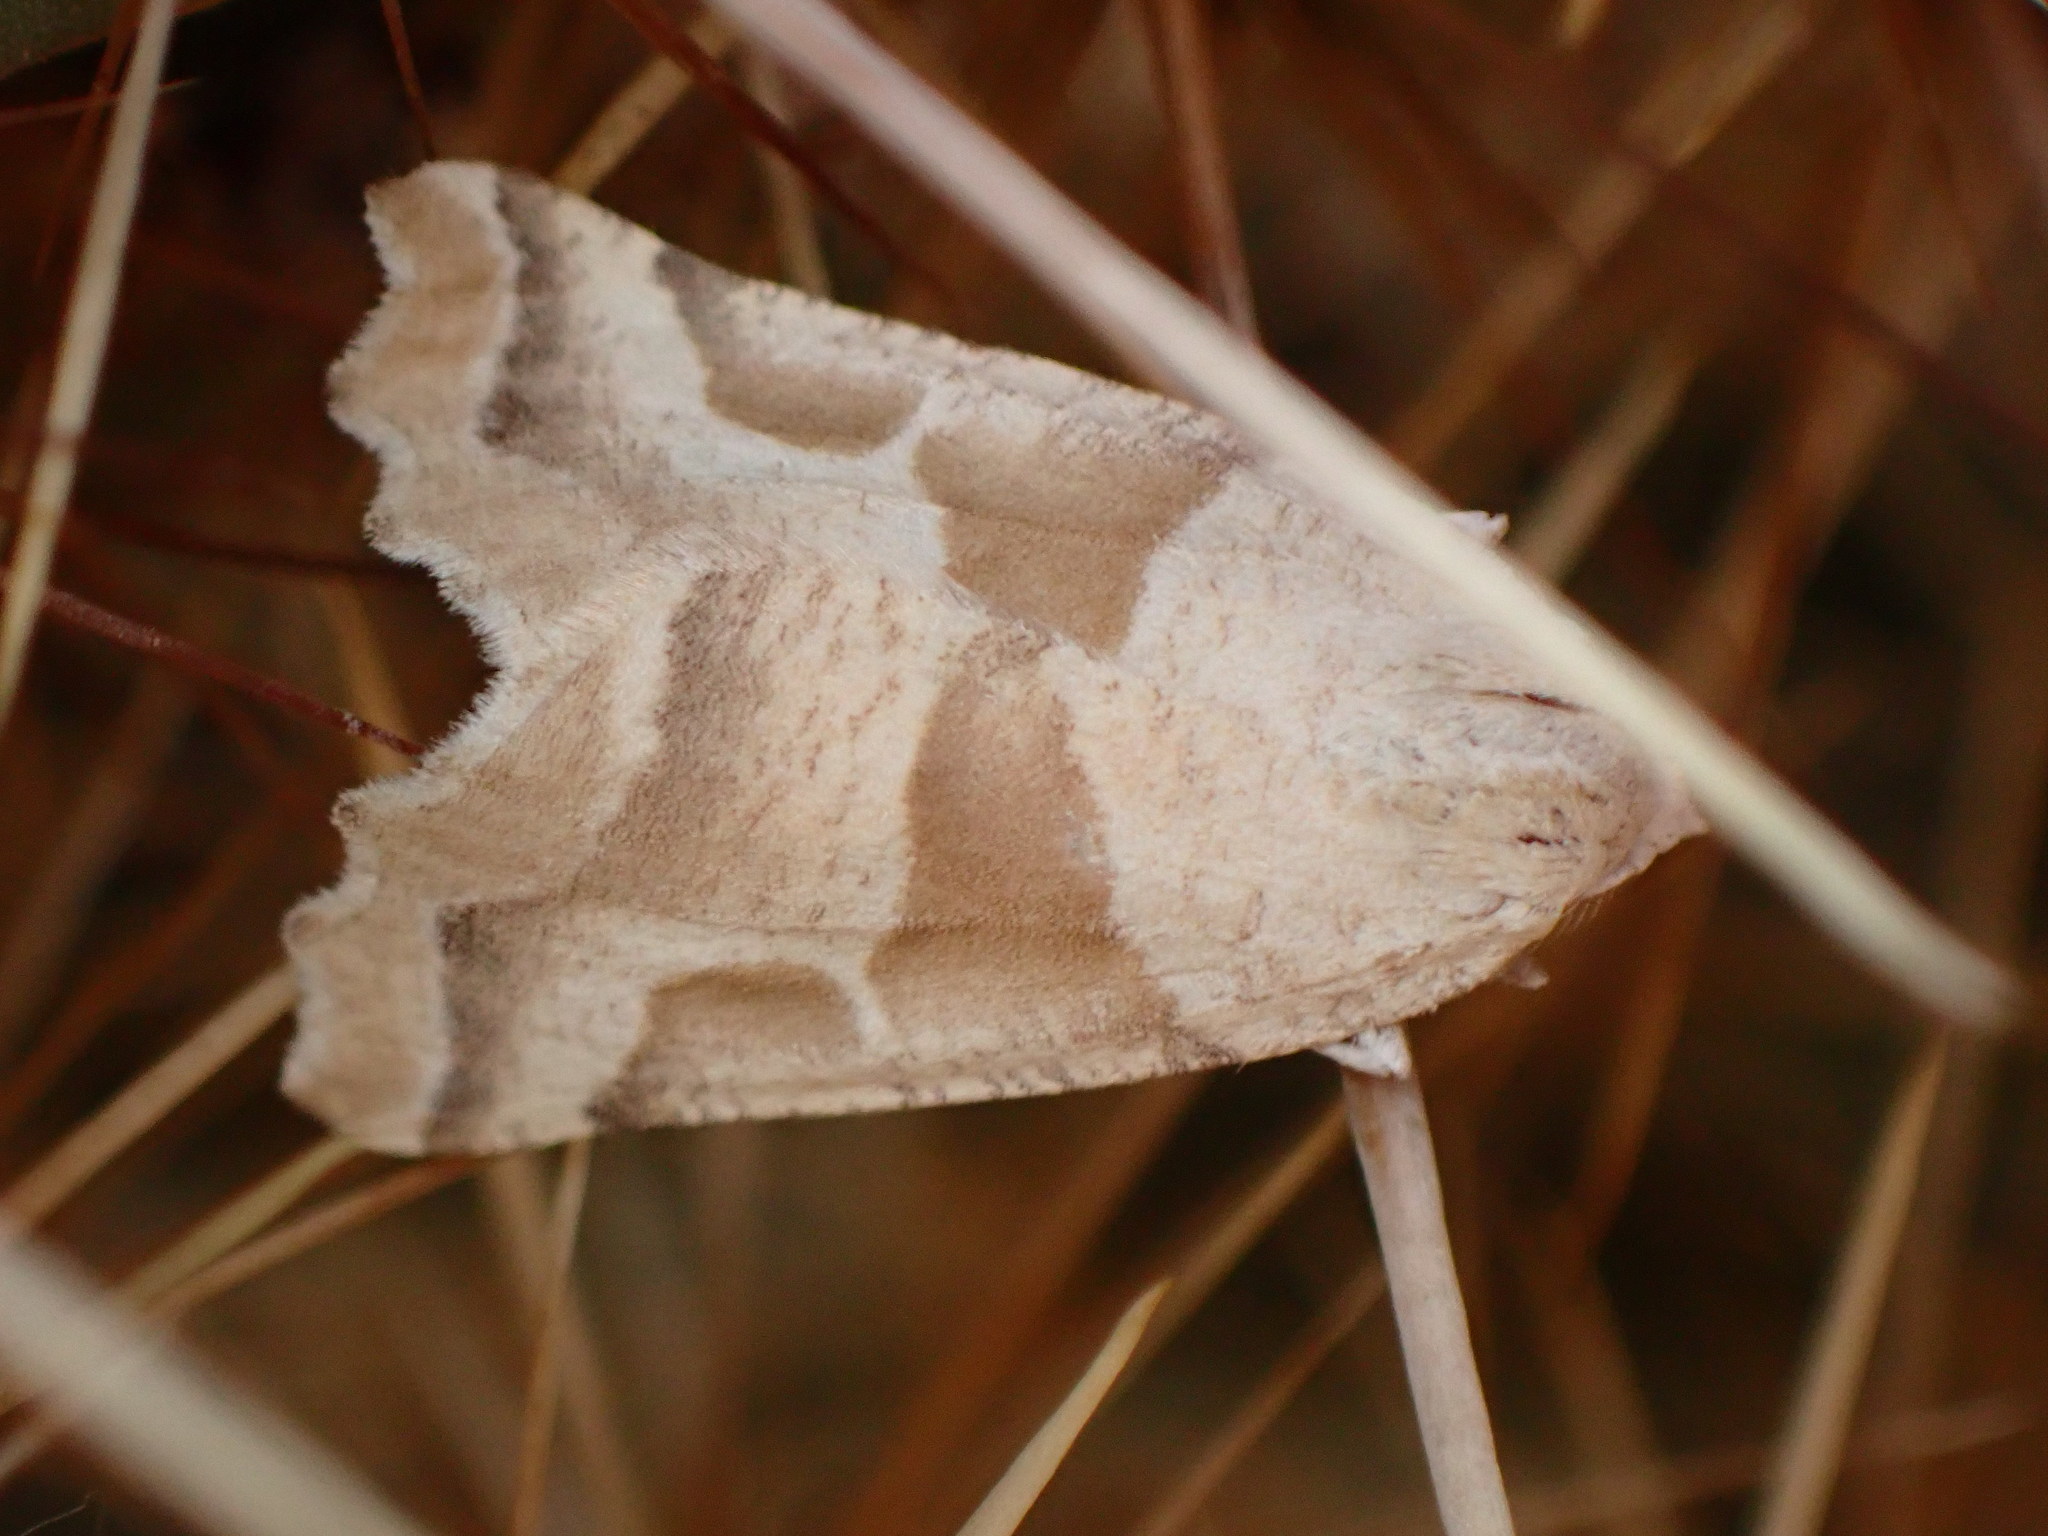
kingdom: Animalia
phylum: Arthropoda
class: Insecta
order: Lepidoptera
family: Geometridae
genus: Plataea
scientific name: Plataea calcaria
